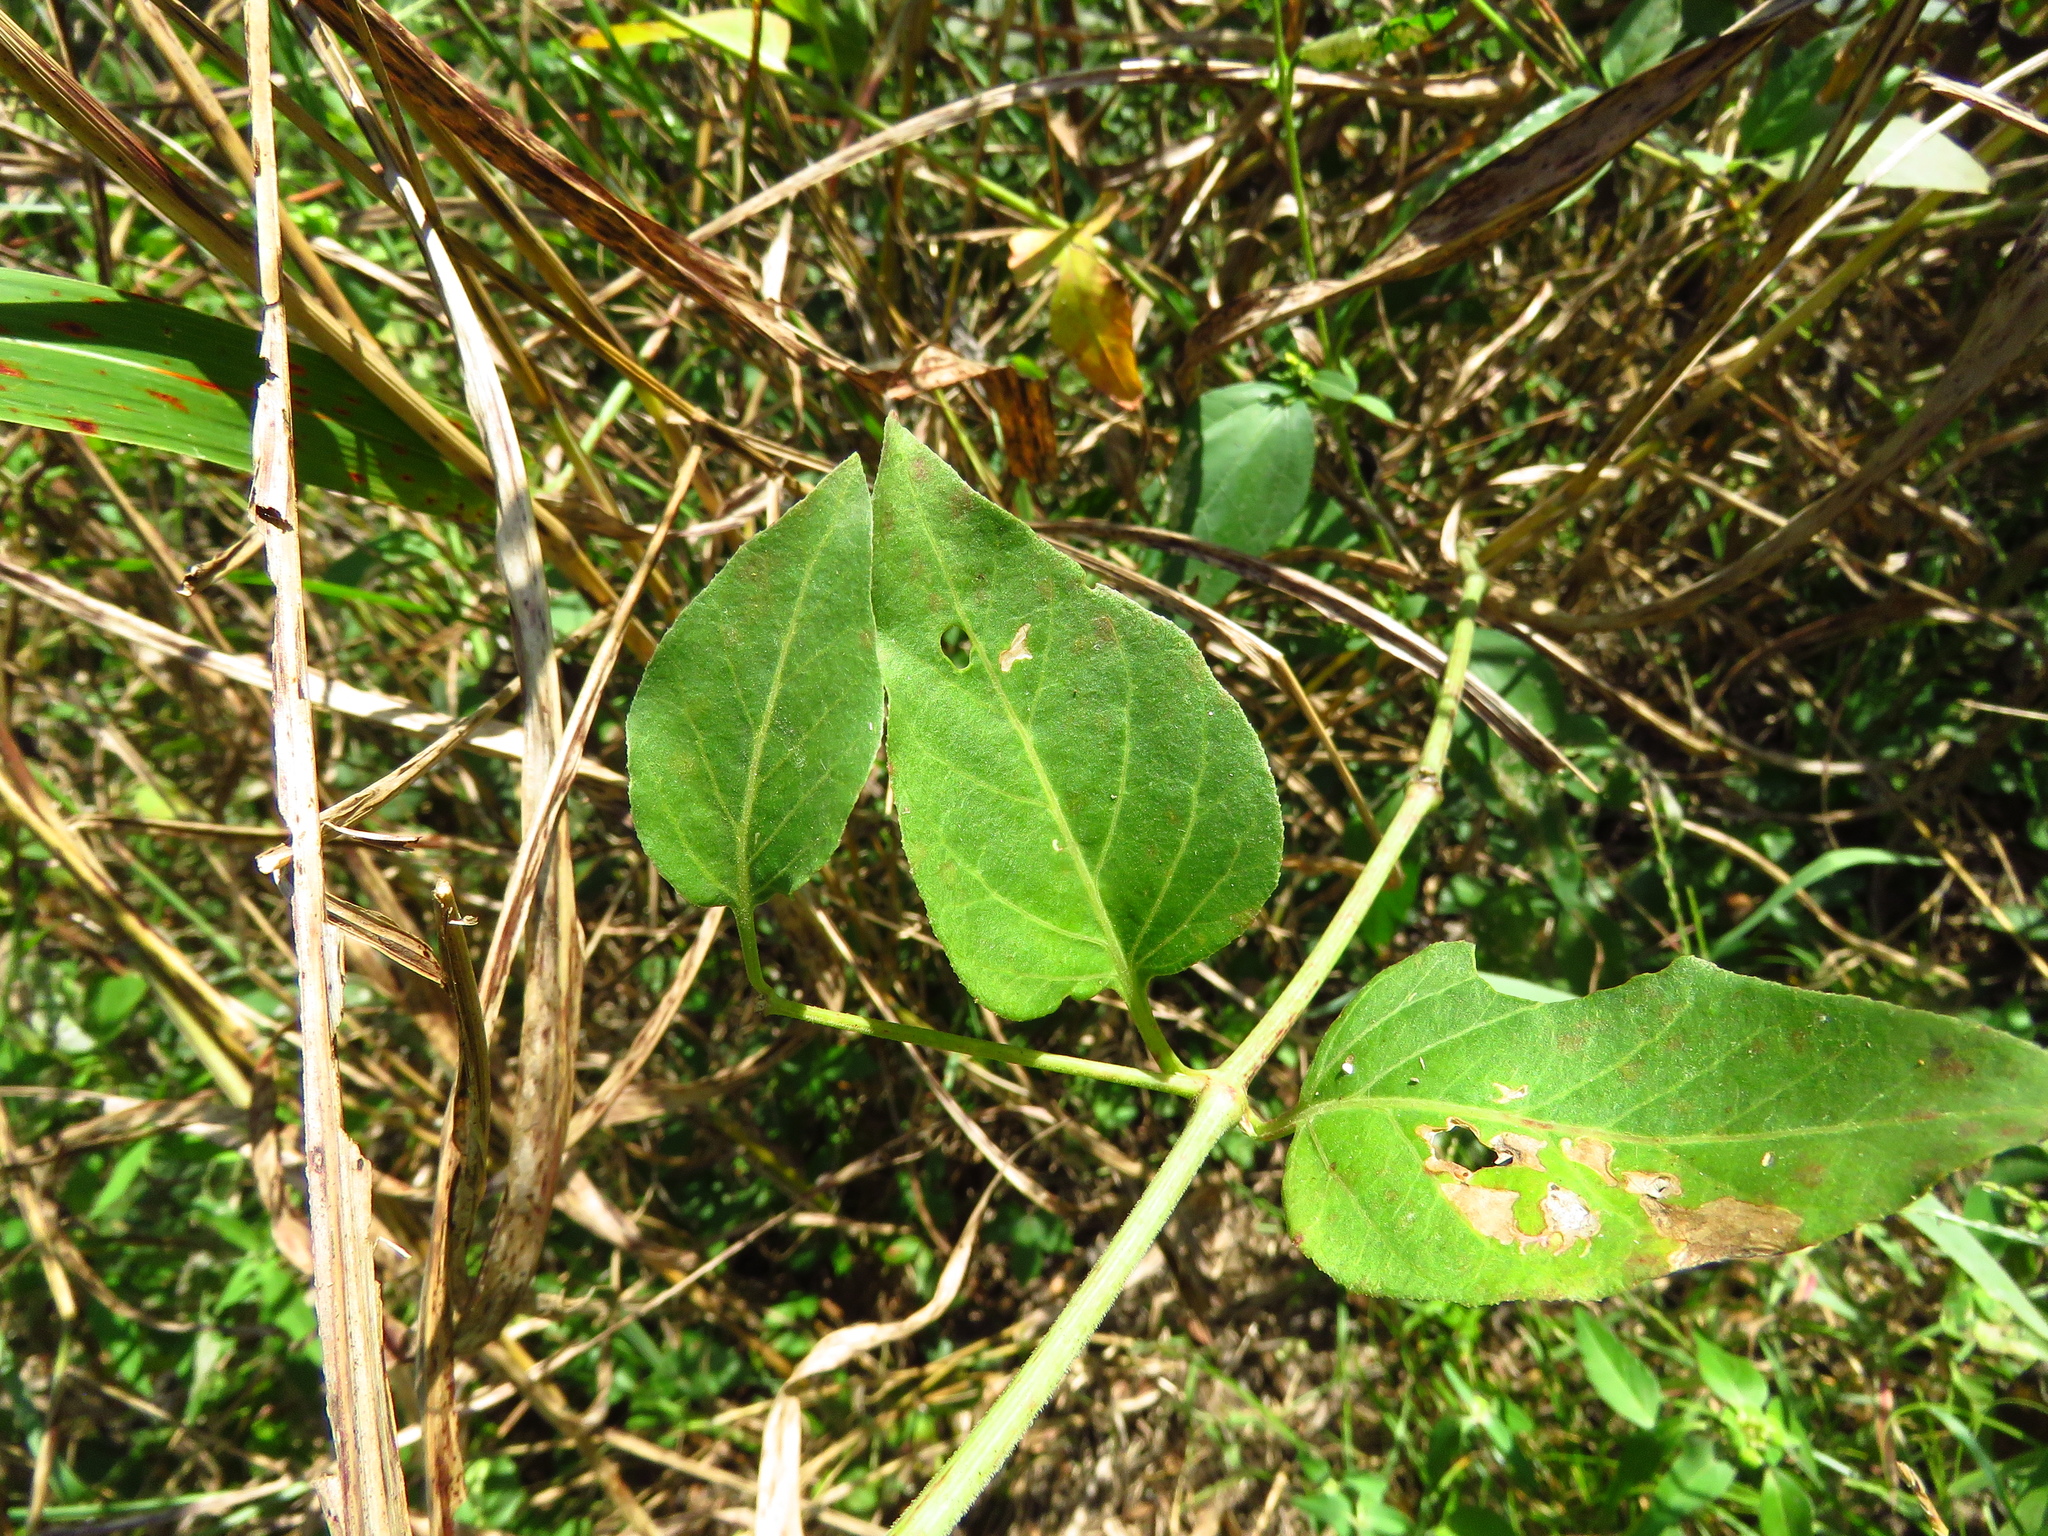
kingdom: Plantae
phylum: Tracheophyta
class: Magnoliopsida
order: Caryophyllales
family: Nyctaginaceae
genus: Mirabilis
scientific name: Mirabilis nyctaginea
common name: Umbrella wort
